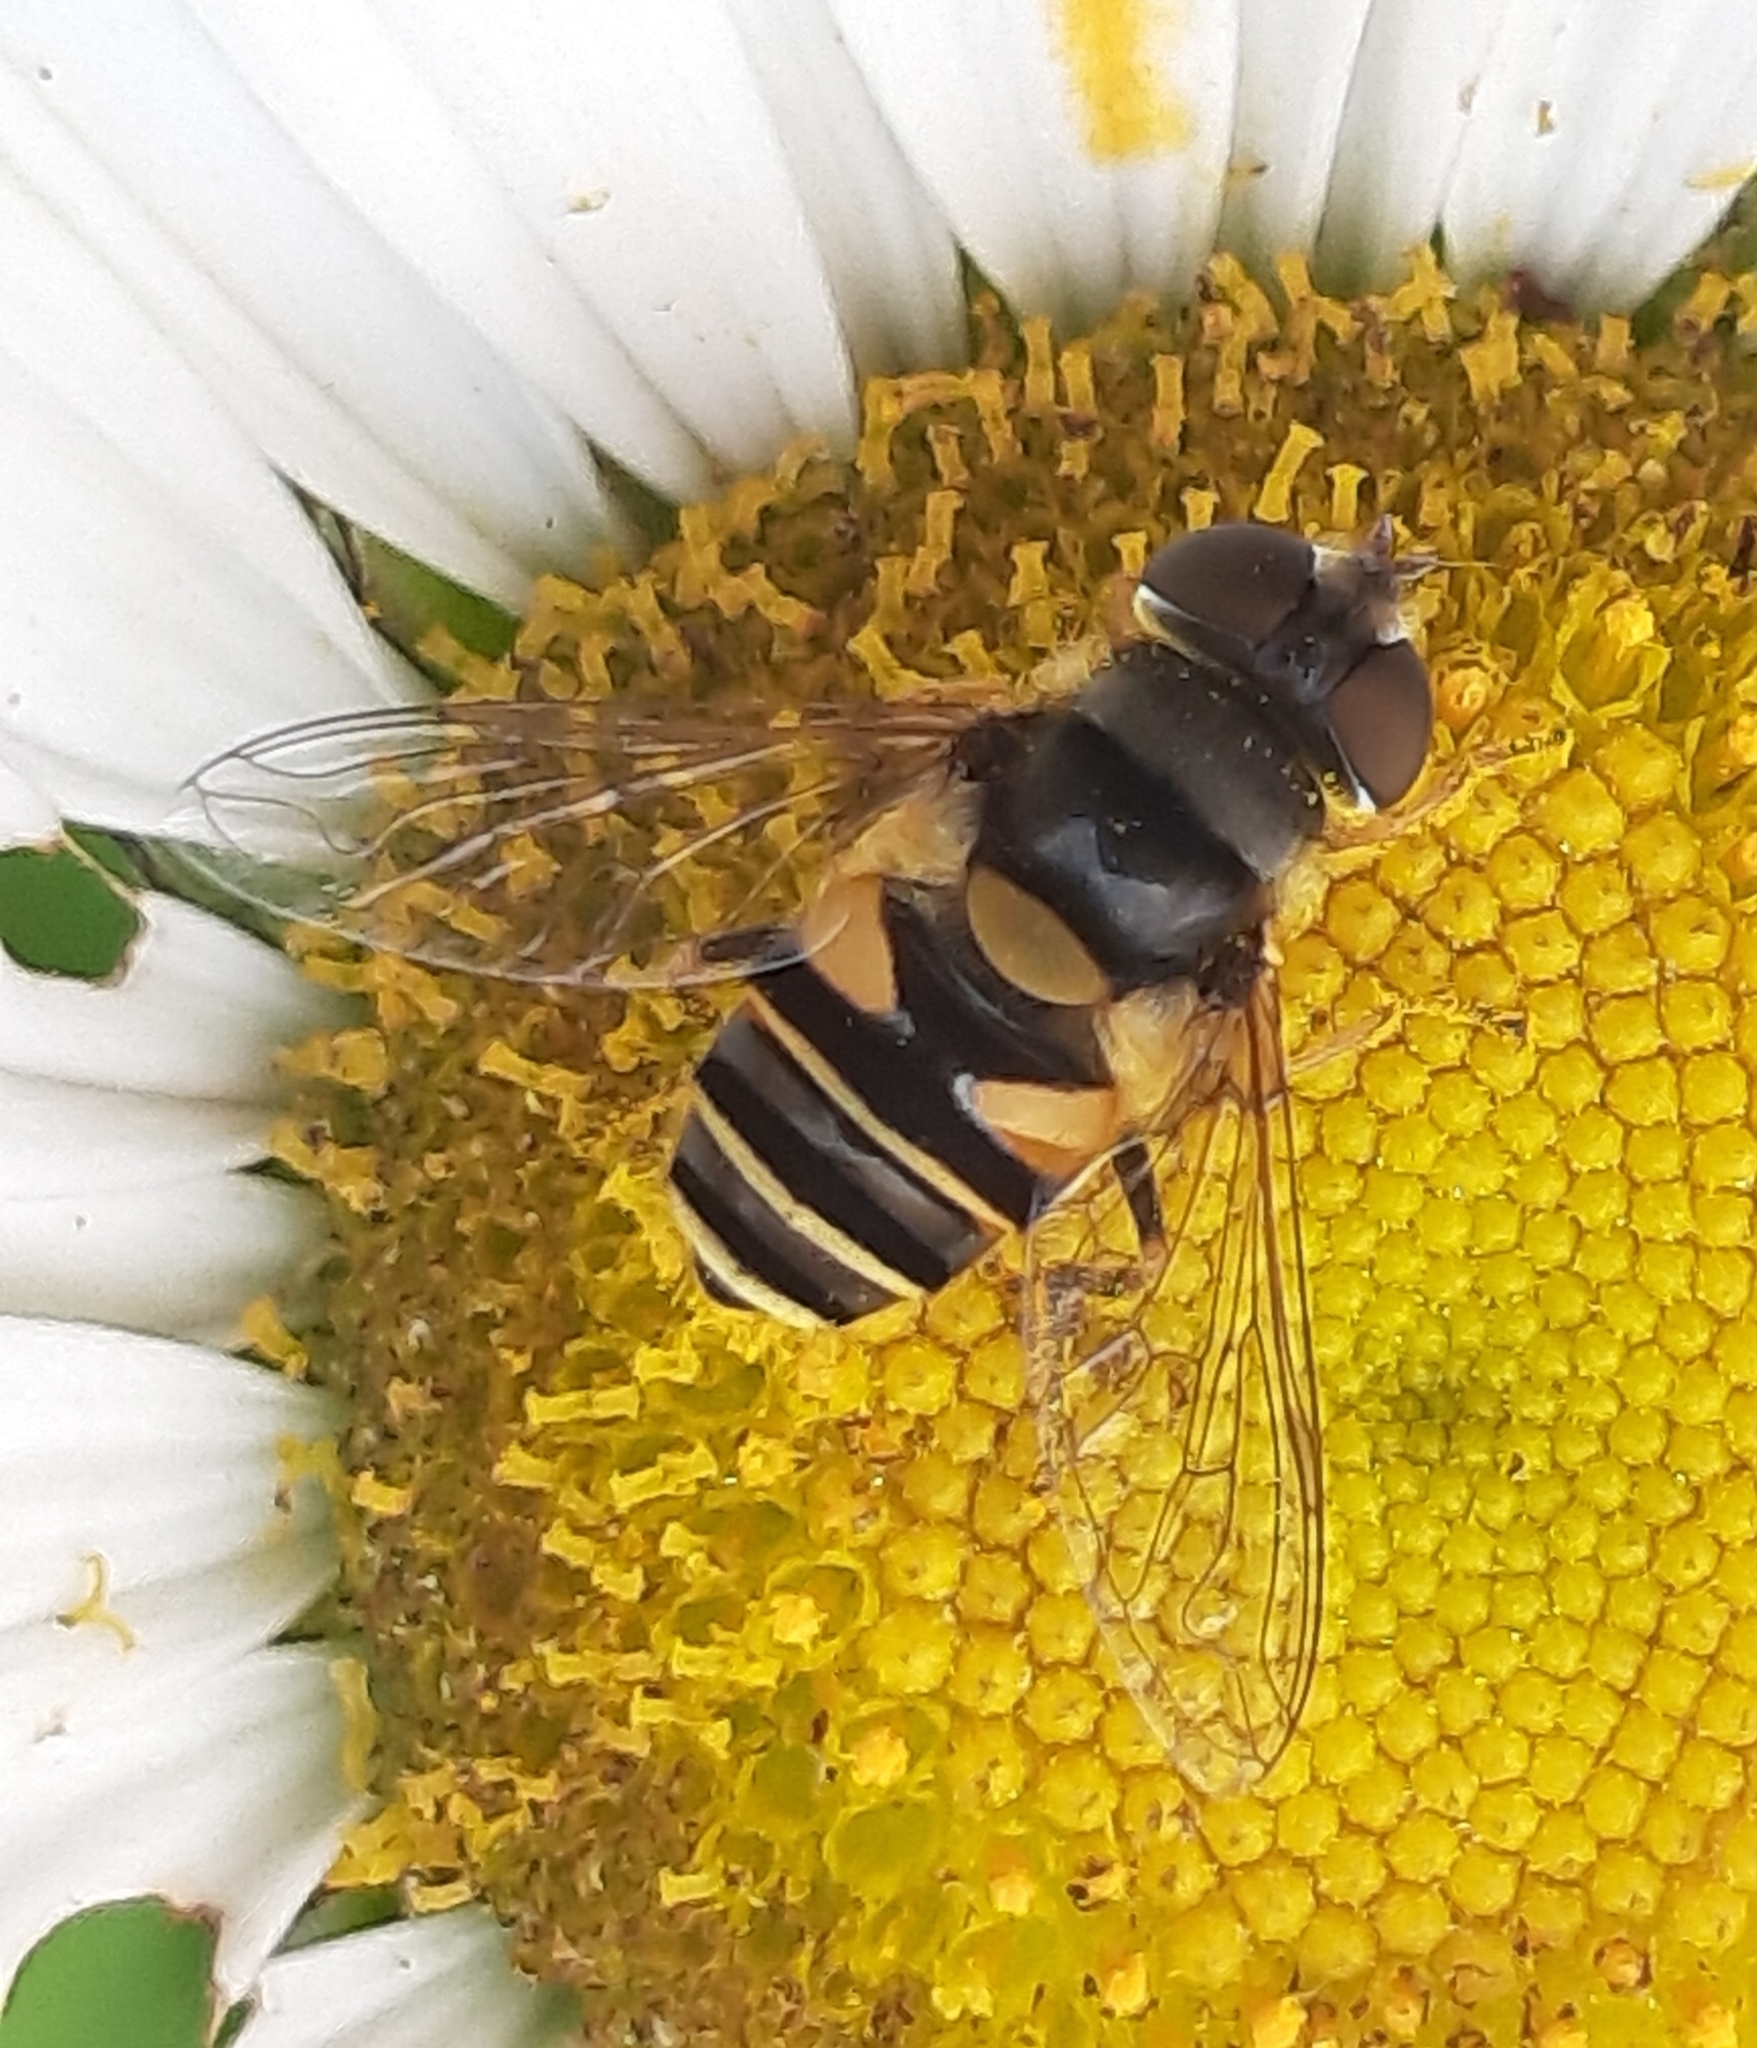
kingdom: Animalia
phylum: Arthropoda
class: Insecta
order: Diptera
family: Syrphidae
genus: Eristalis
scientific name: Eristalis transversa
